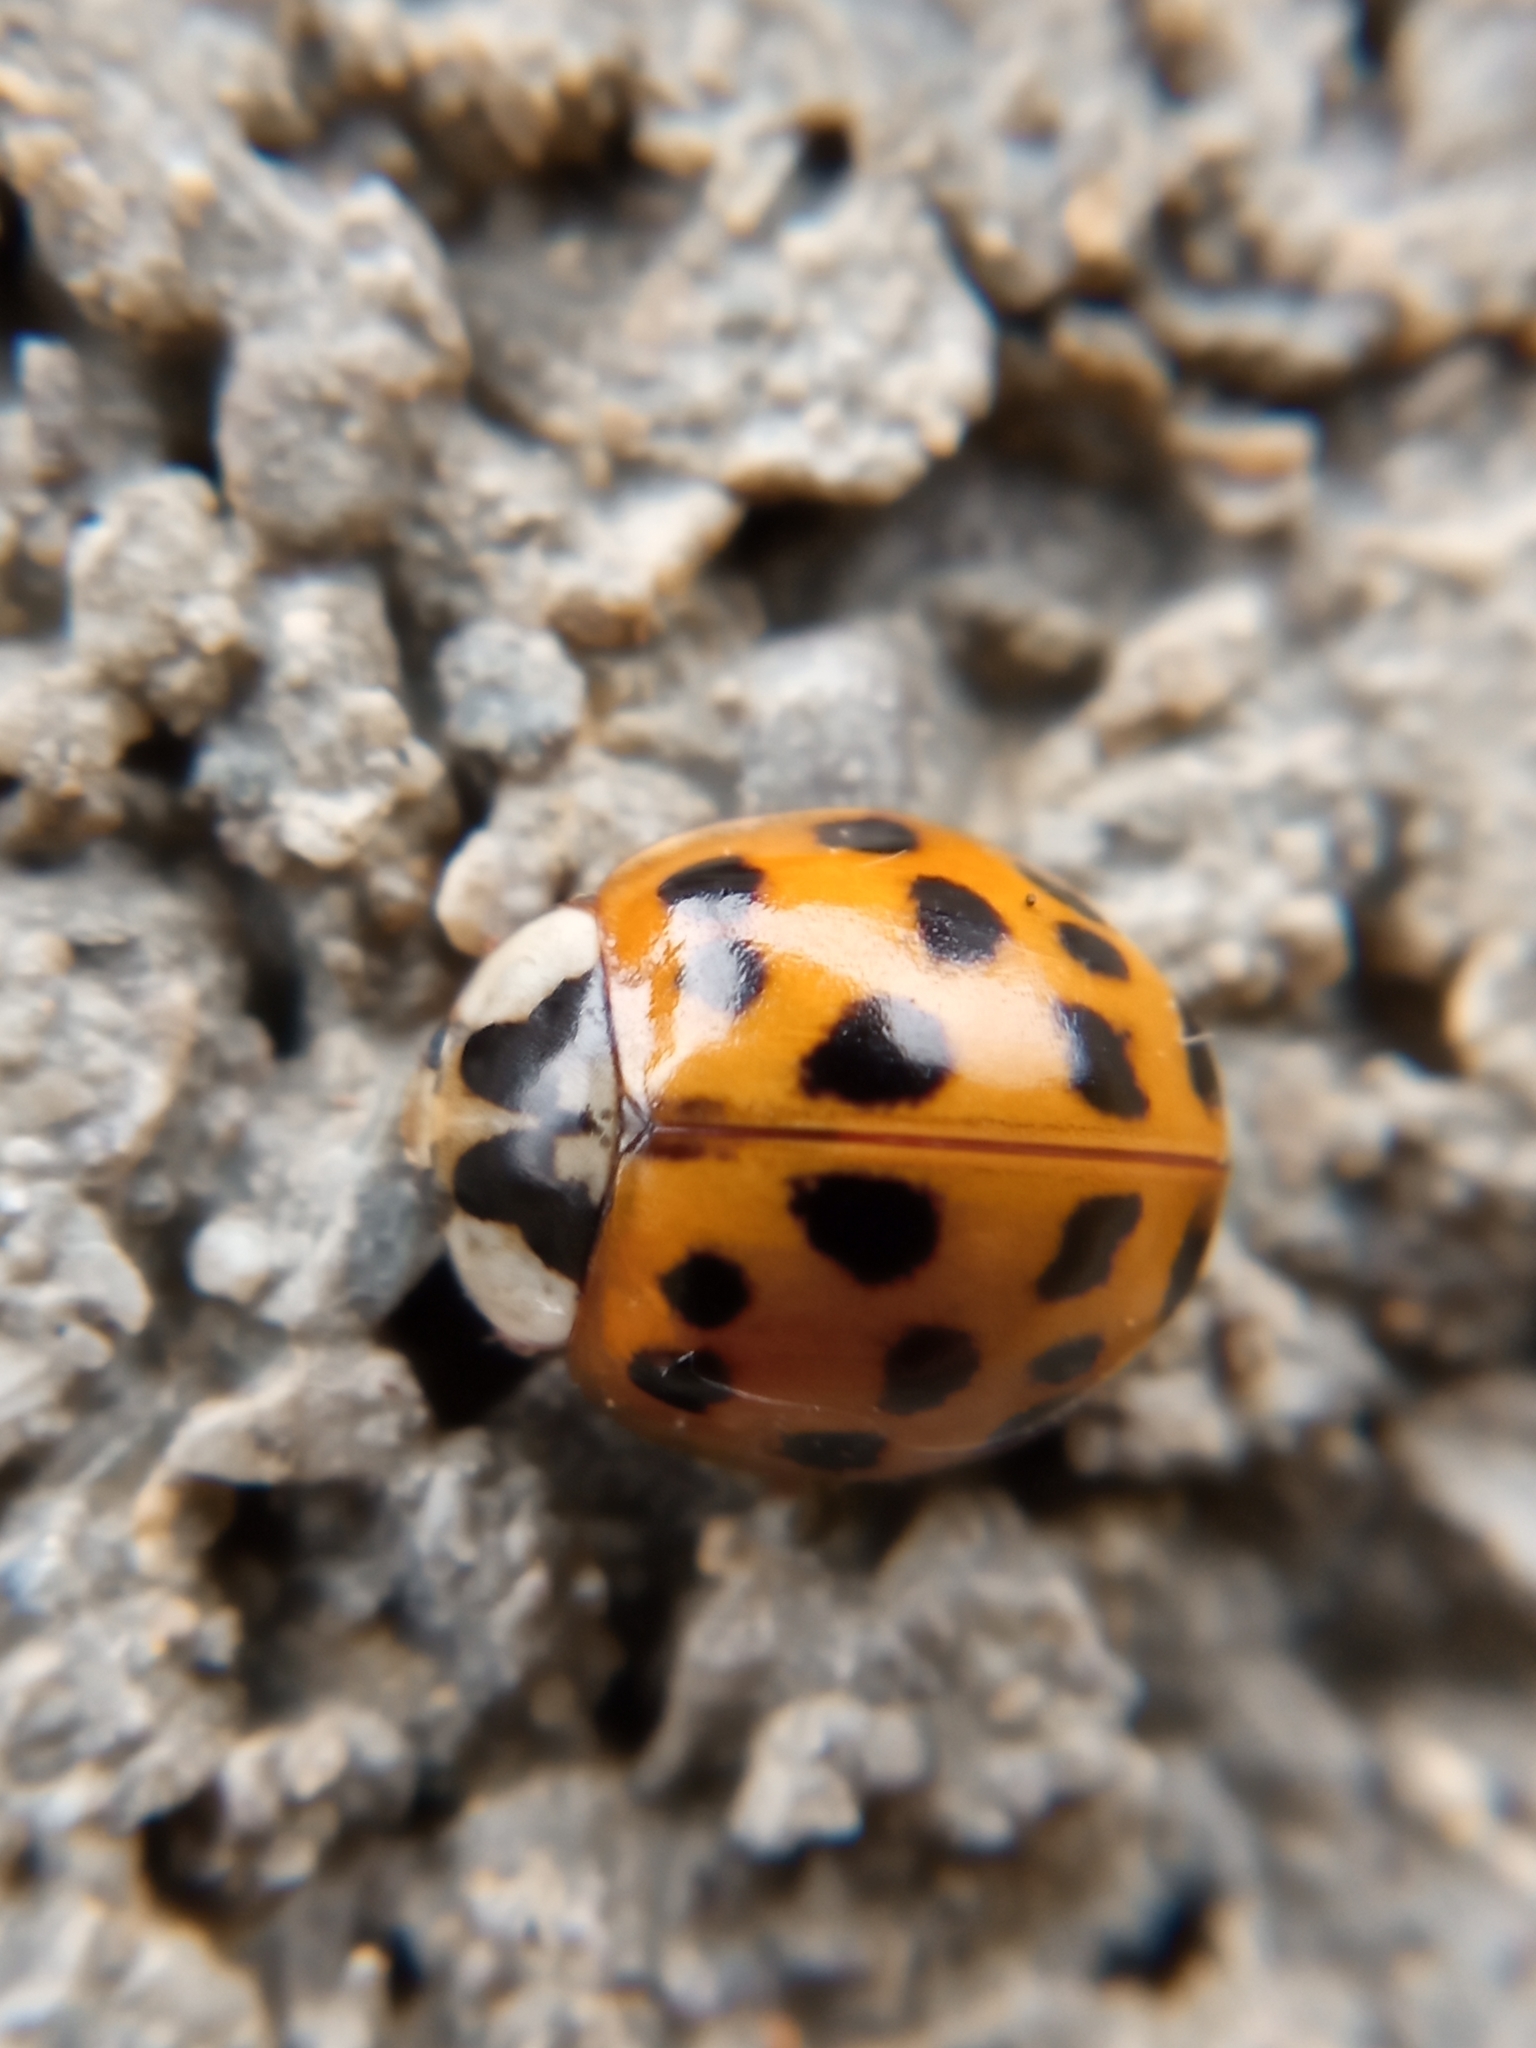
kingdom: Animalia
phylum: Arthropoda
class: Insecta
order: Coleoptera
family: Coccinellidae
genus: Harmonia
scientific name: Harmonia axyridis
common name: Harlequin ladybird
